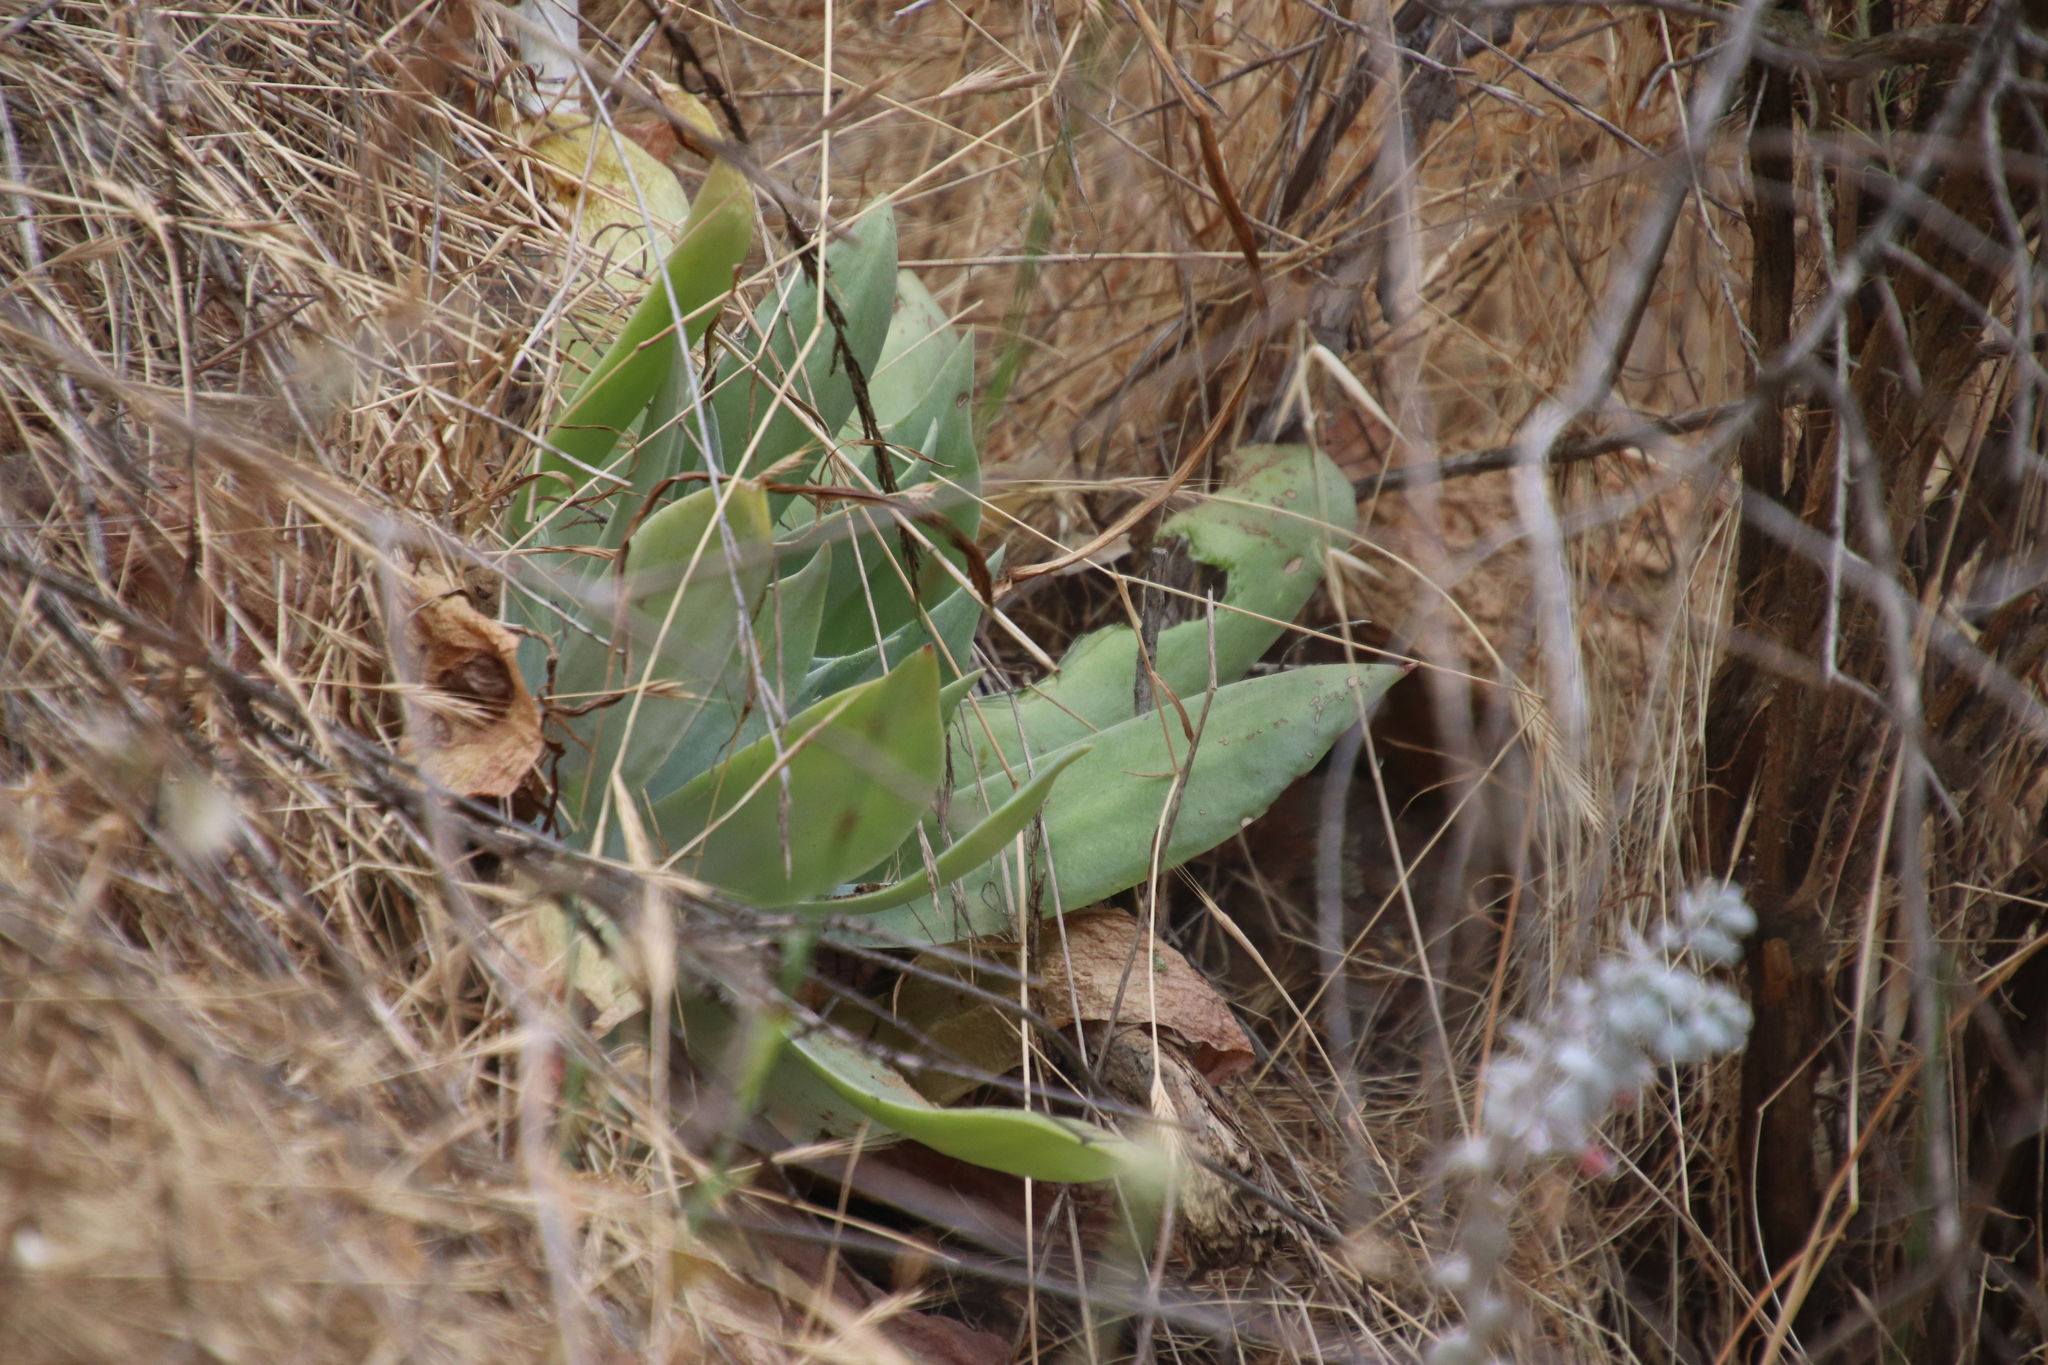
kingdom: Plantae
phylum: Tracheophyta
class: Magnoliopsida
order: Saxifragales
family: Crassulaceae
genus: Dudleya
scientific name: Dudleya pulverulenta
